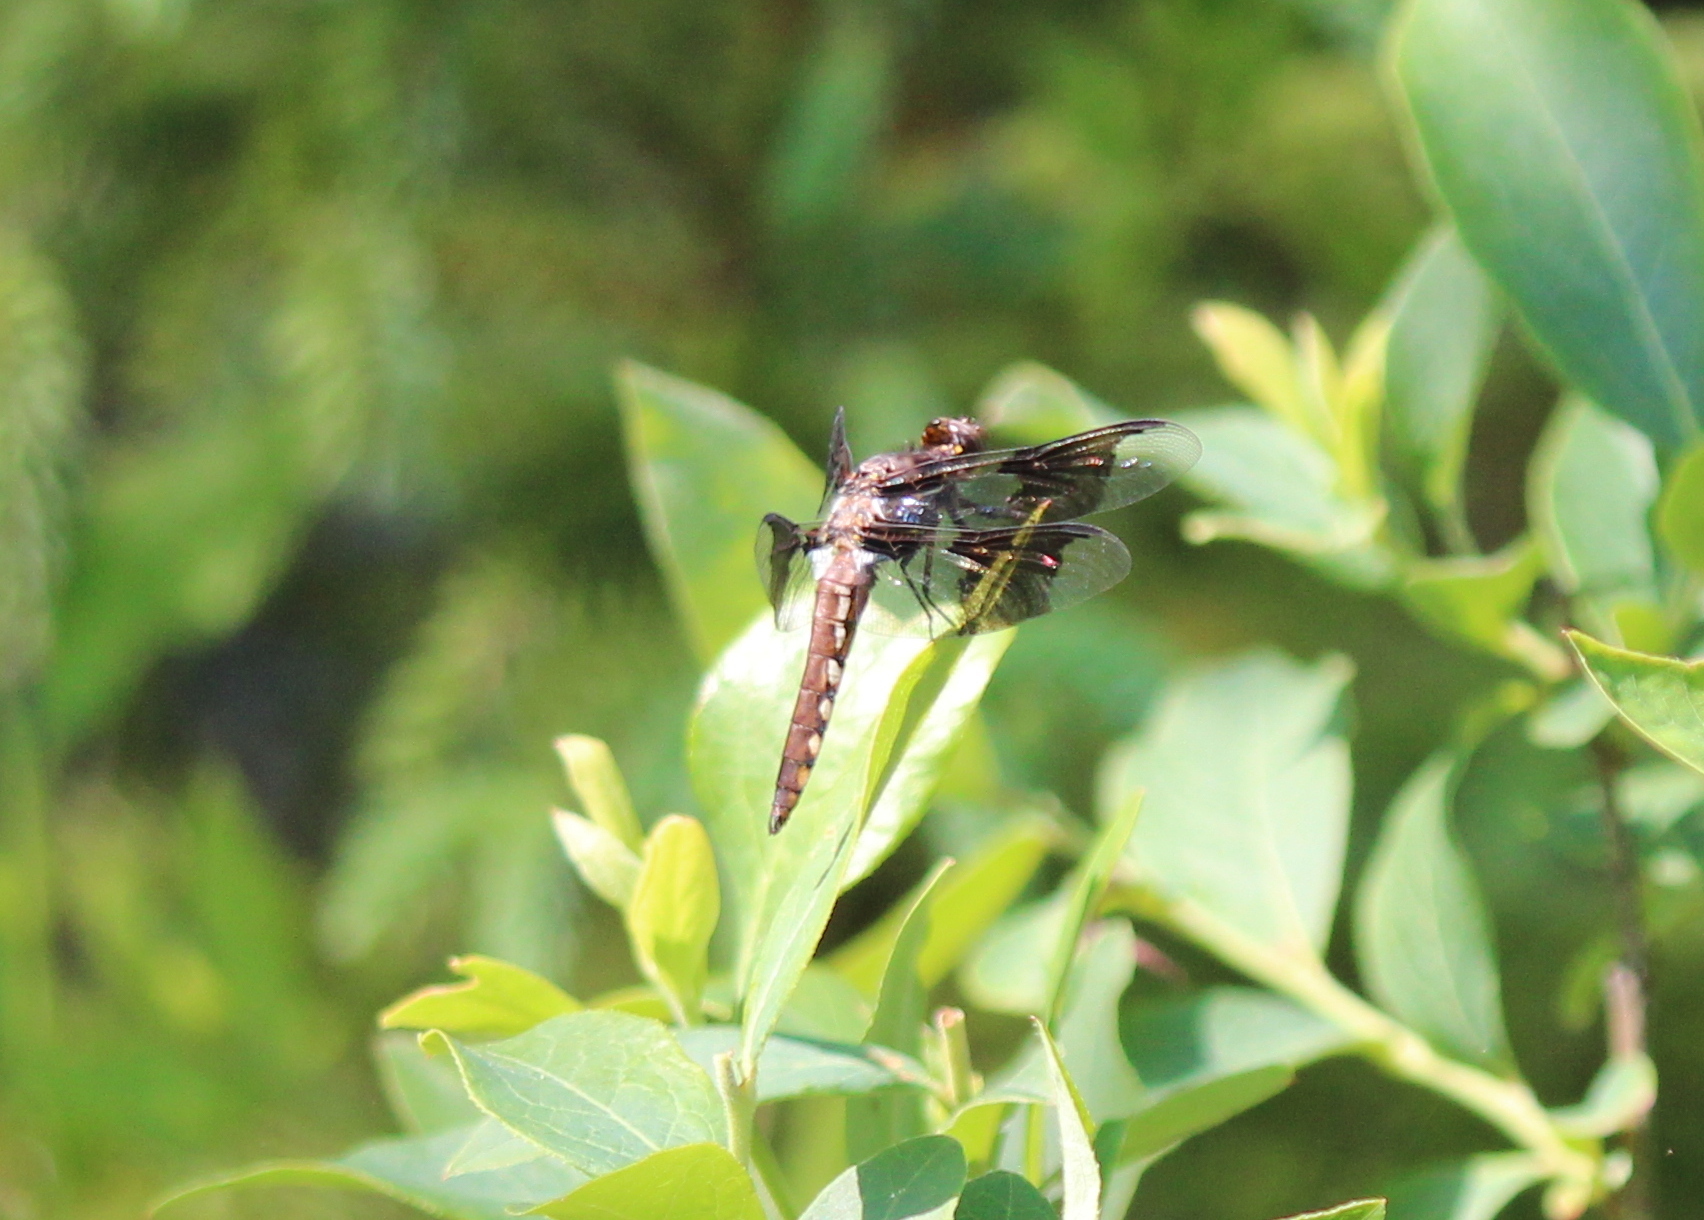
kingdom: Animalia
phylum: Arthropoda
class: Insecta
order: Odonata
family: Libellulidae
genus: Plathemis
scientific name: Plathemis lydia
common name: Common whitetail
